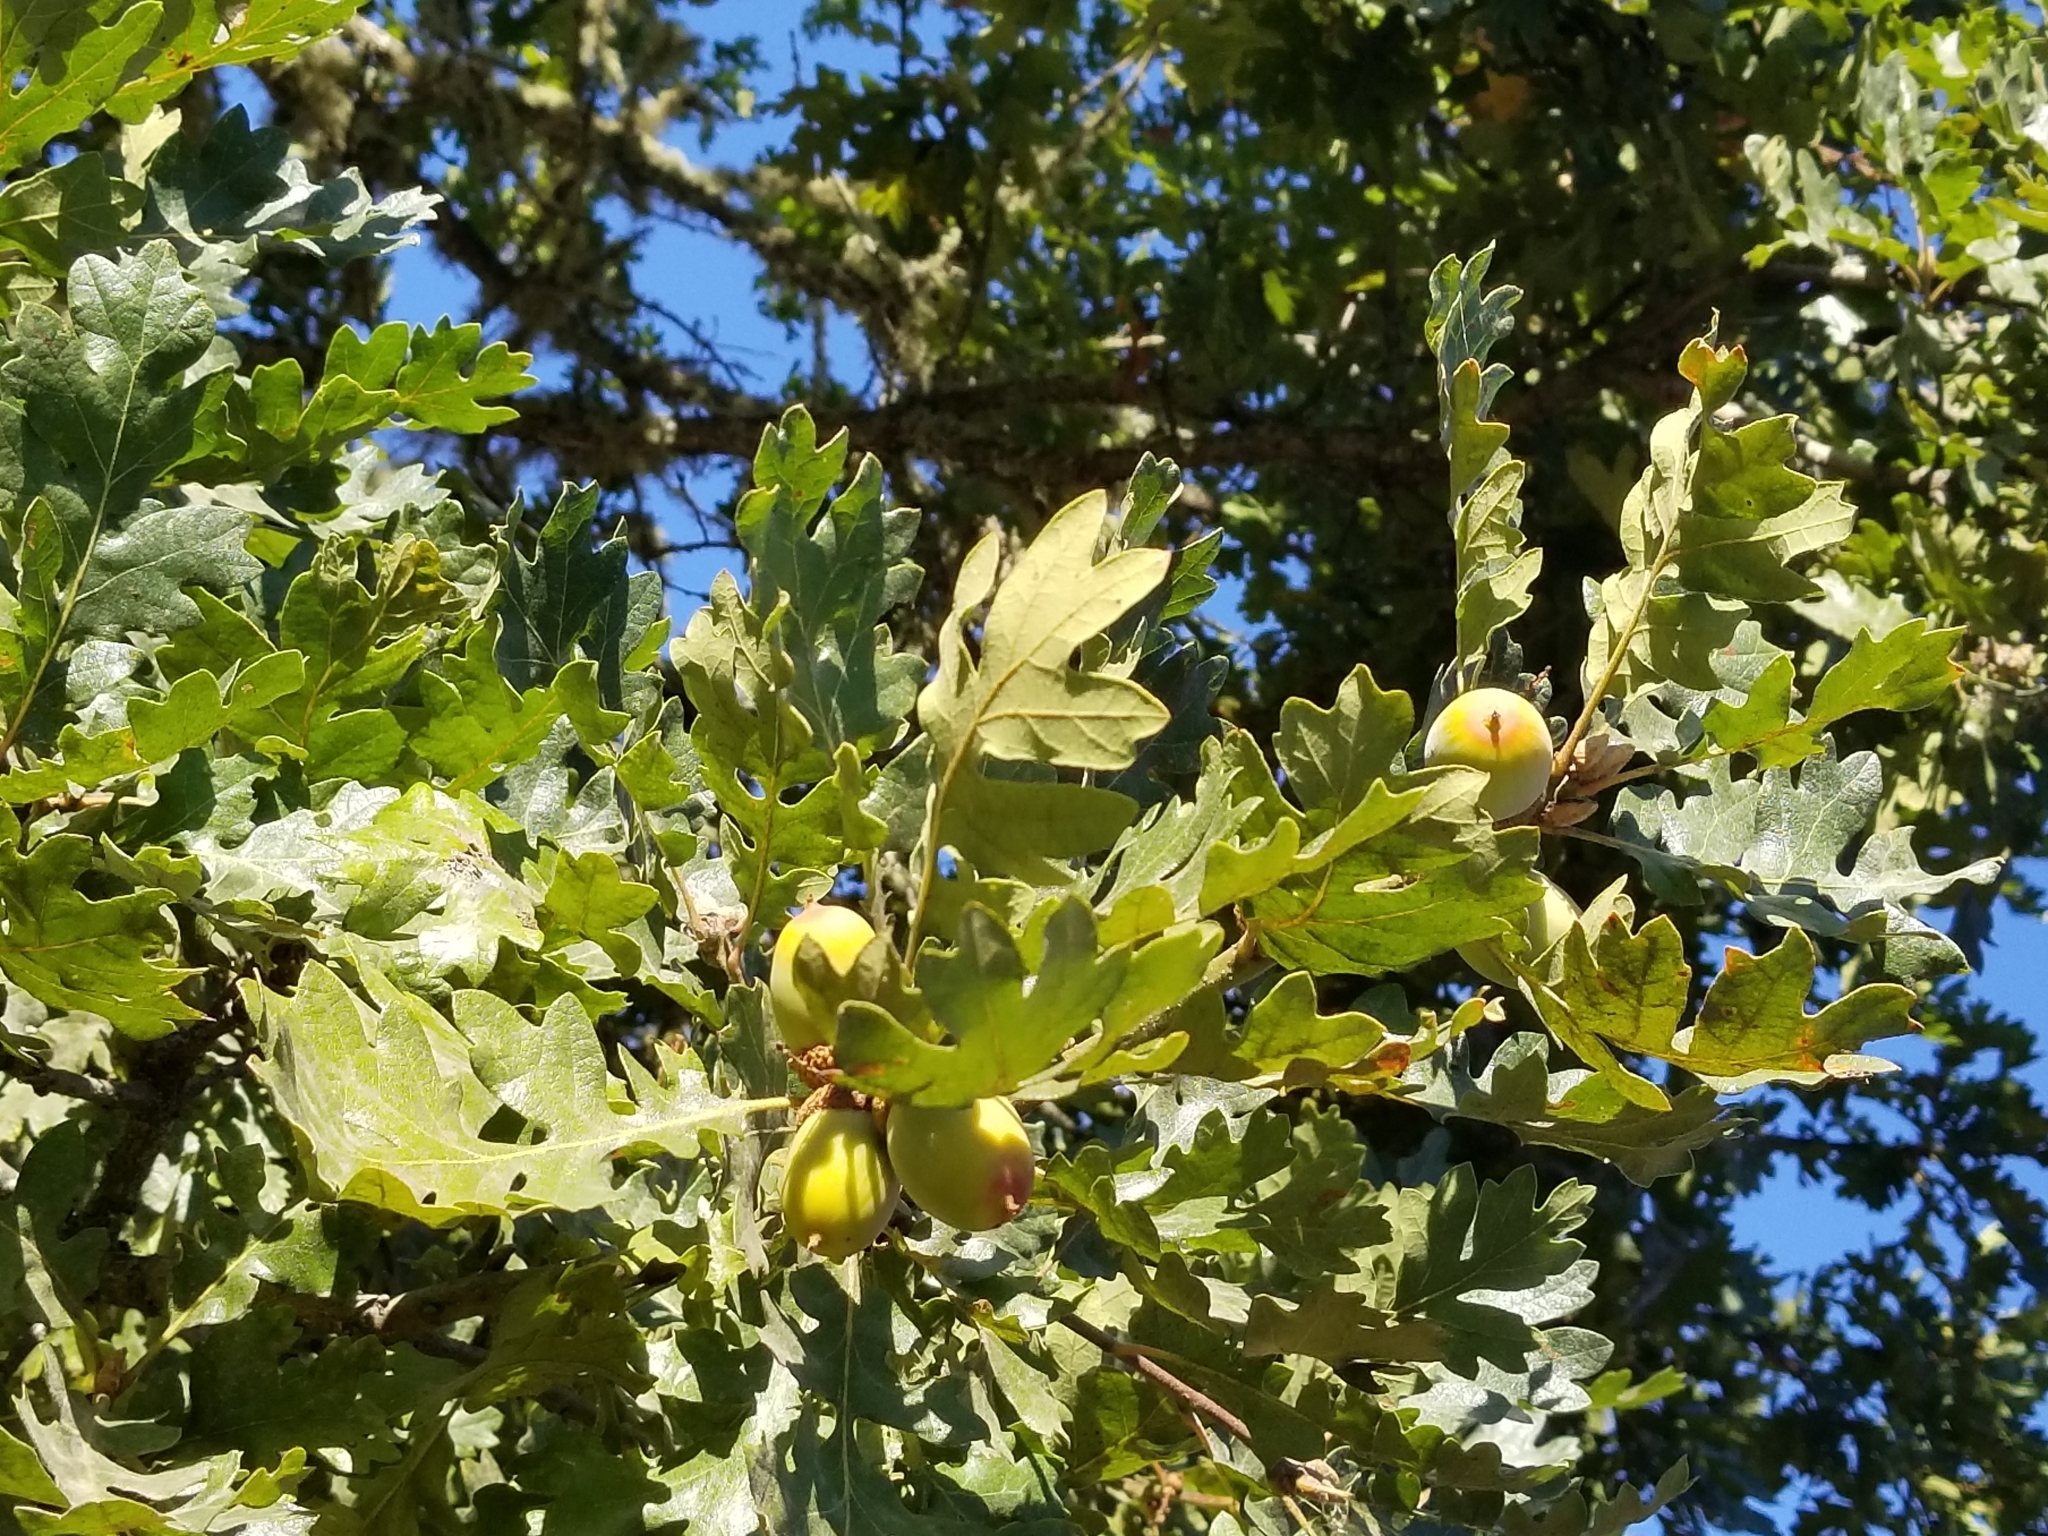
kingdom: Plantae
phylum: Tracheophyta
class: Magnoliopsida
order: Fagales
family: Fagaceae
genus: Quercus
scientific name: Quercus garryana
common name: Garry oak
